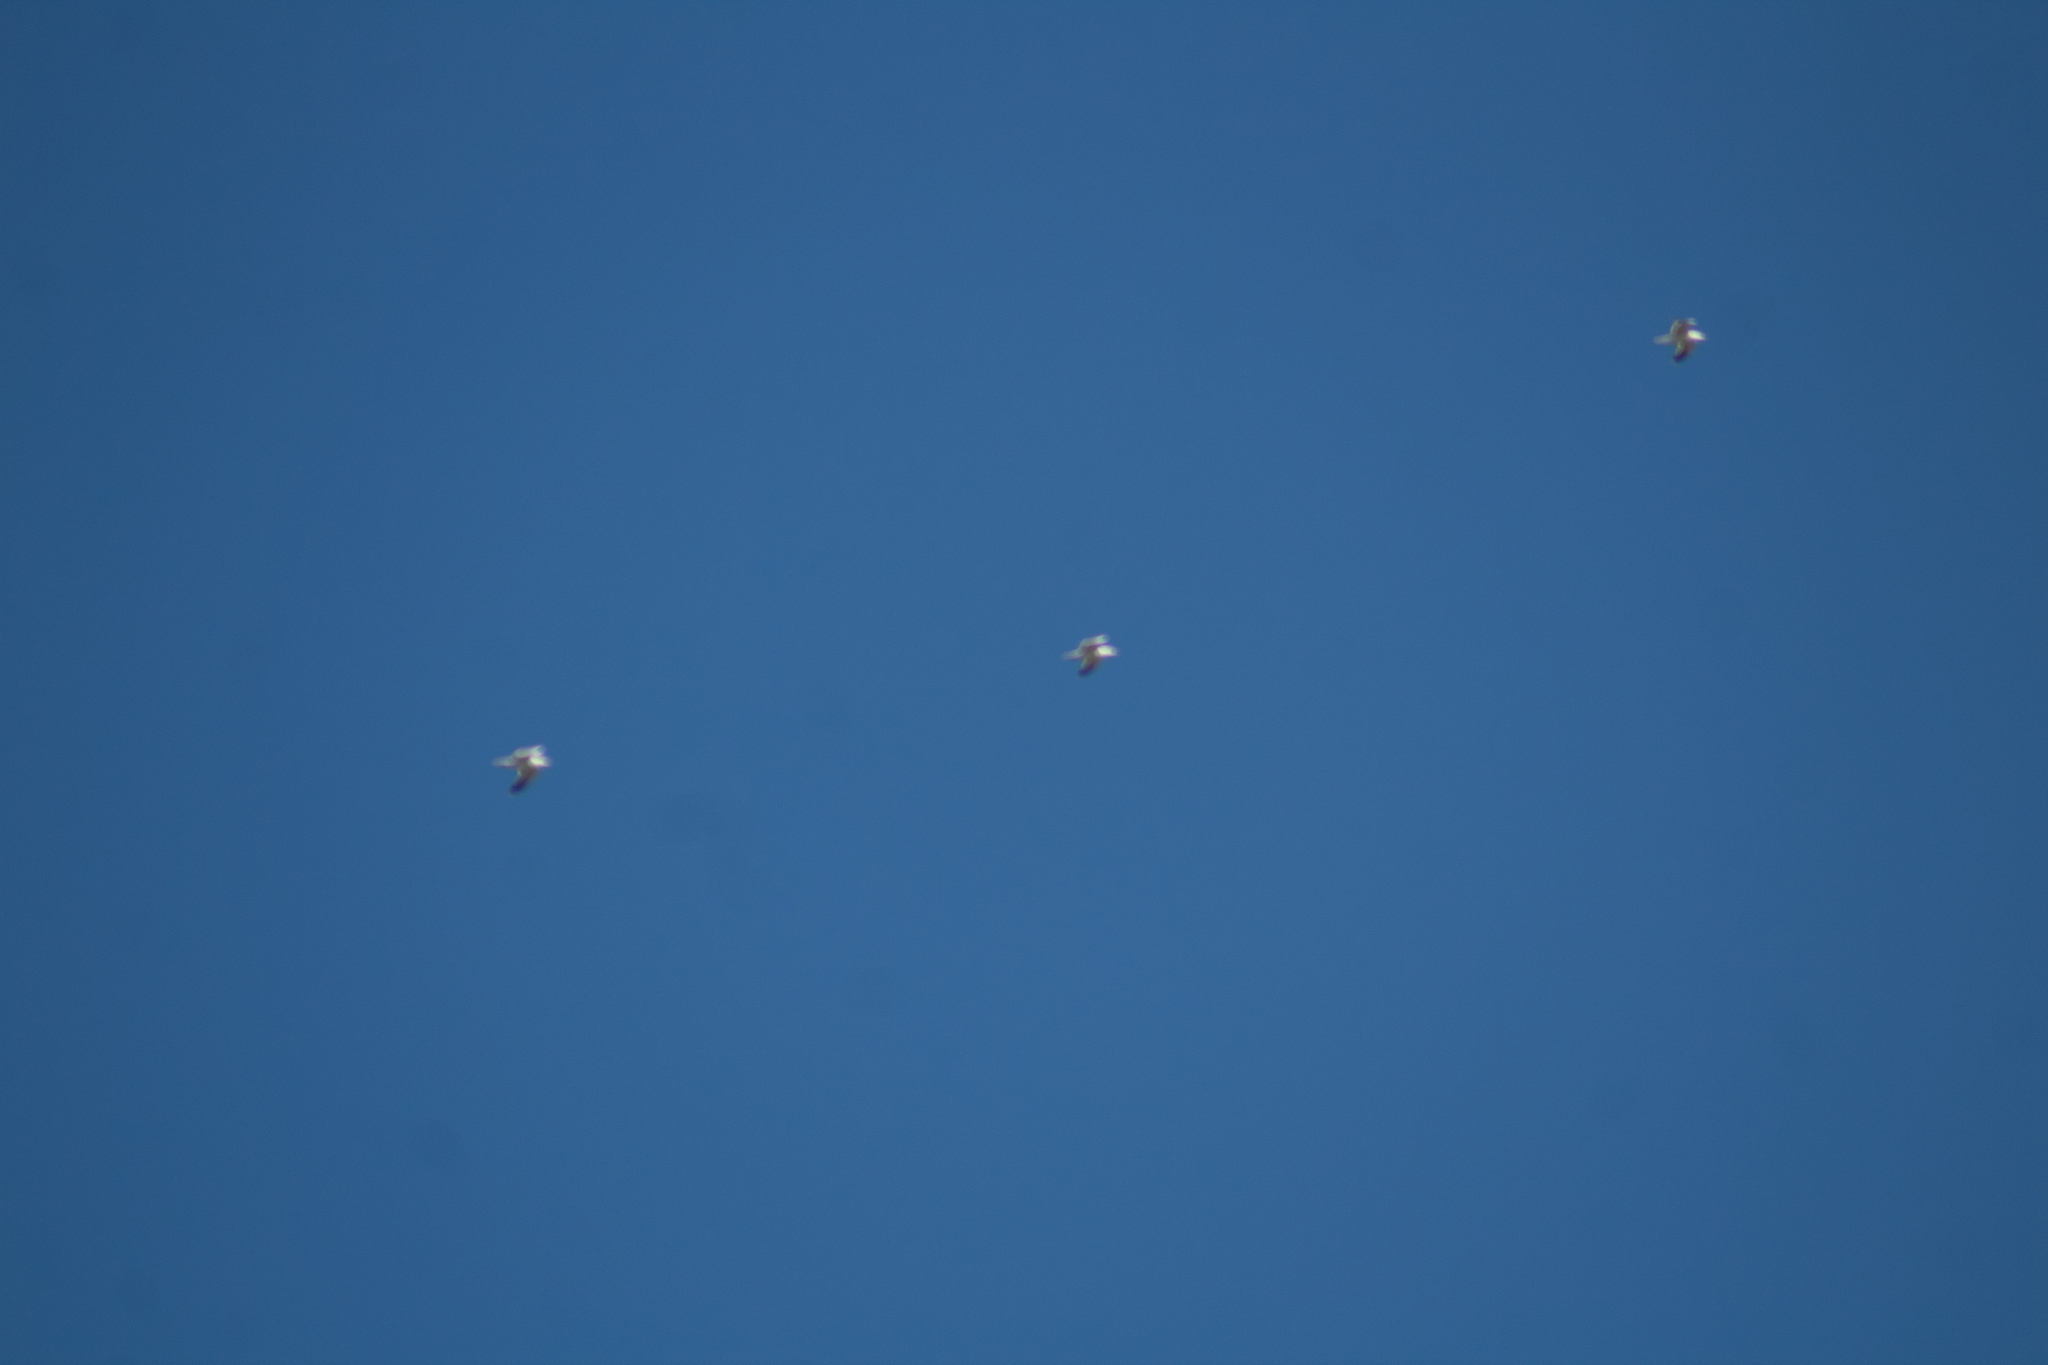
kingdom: Animalia
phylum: Chordata
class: Aves
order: Charadriiformes
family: Laridae
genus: Larus
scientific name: Larus michahellis
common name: Yellow-legged gull
